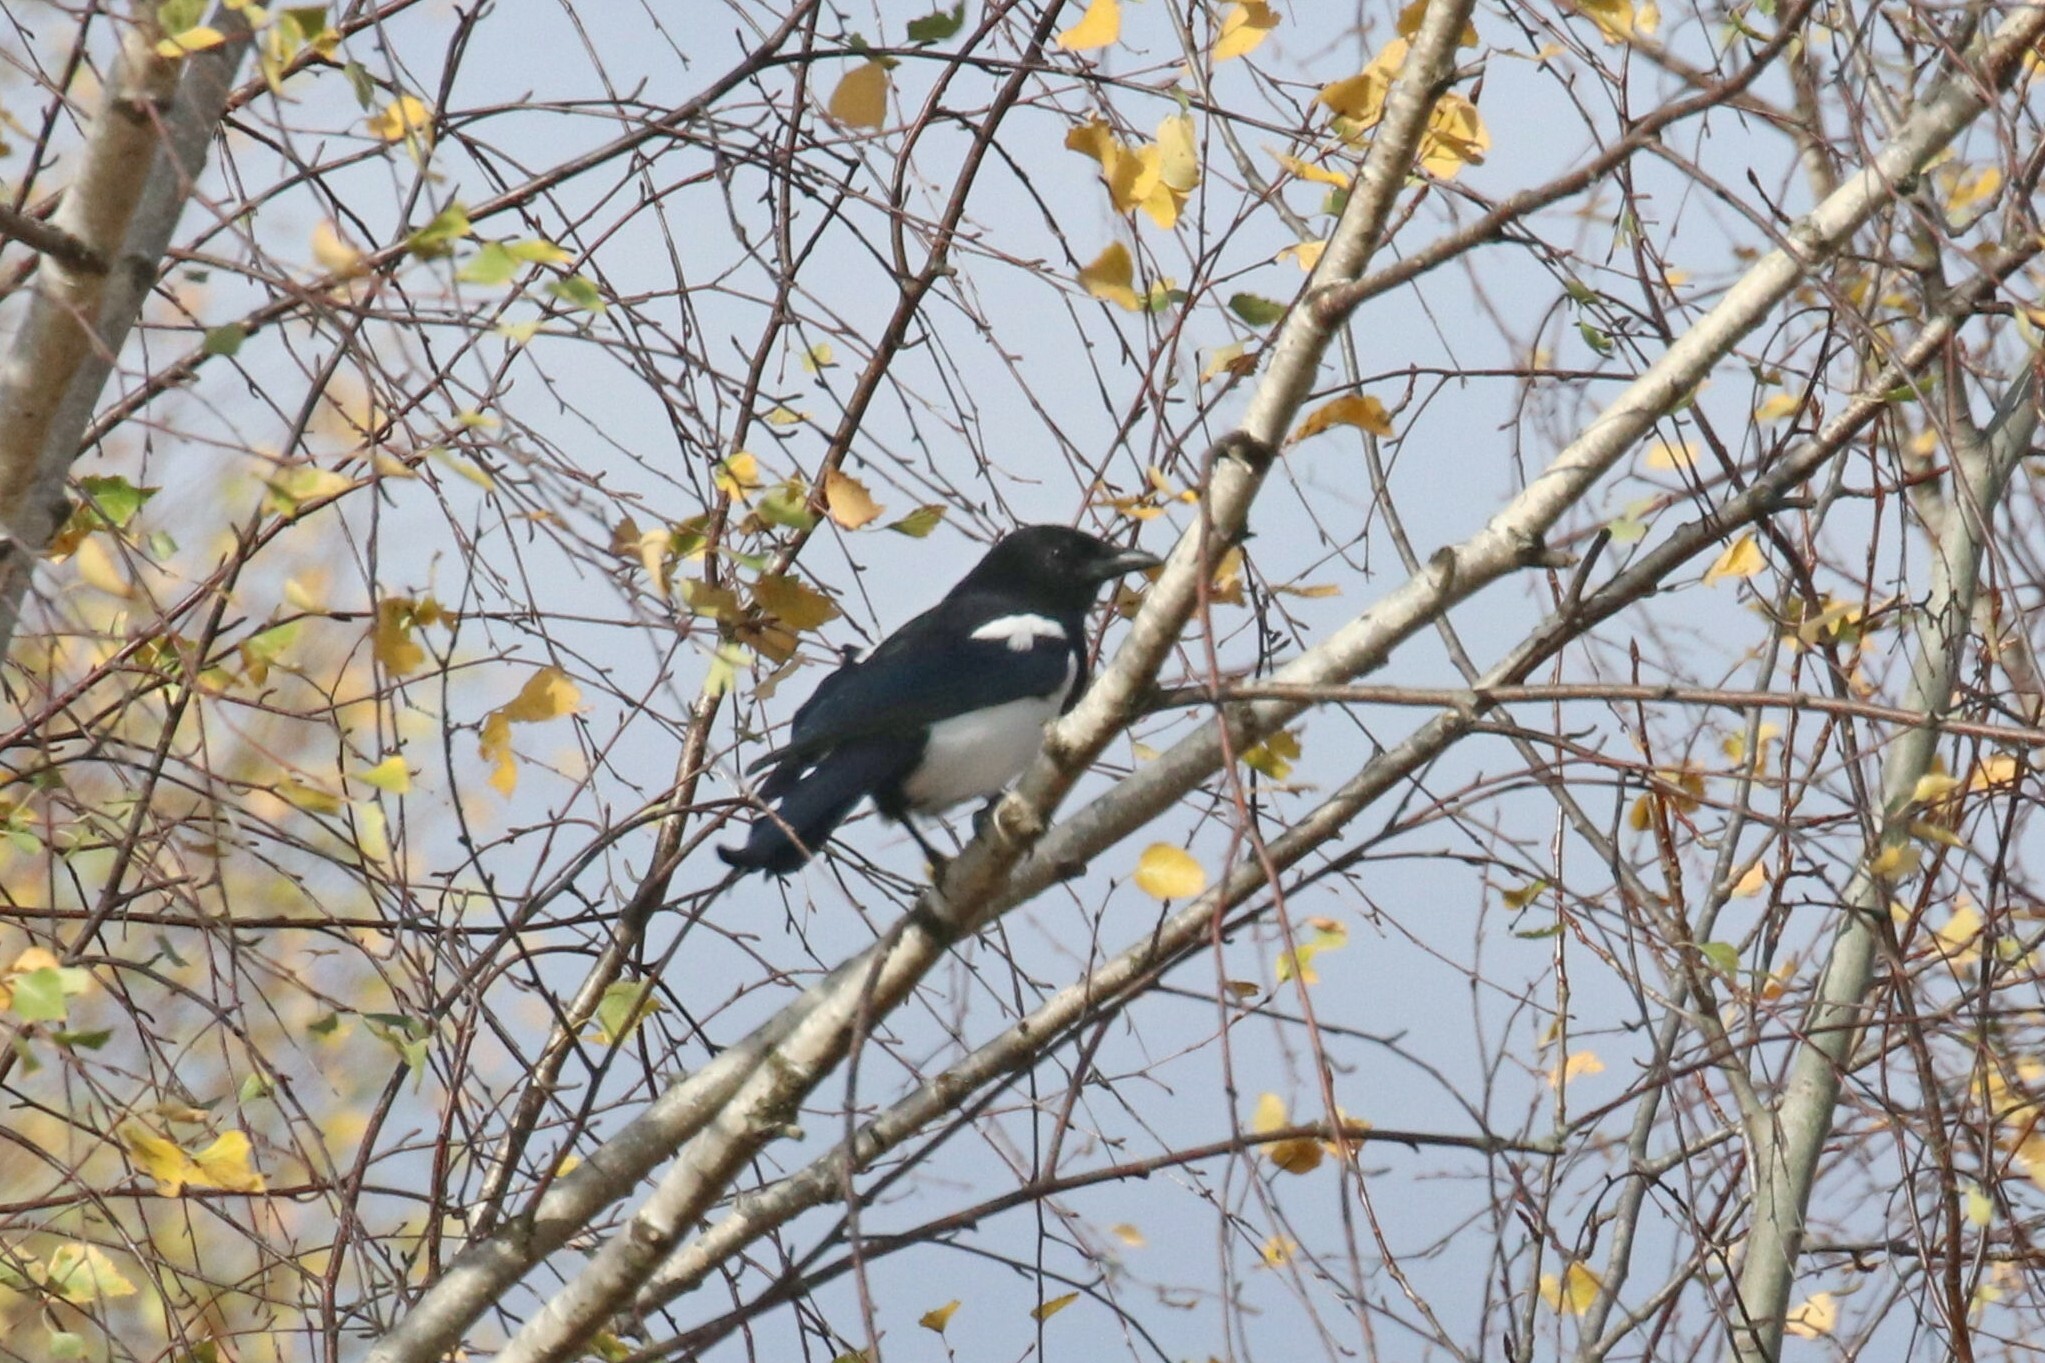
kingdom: Animalia
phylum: Chordata
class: Aves
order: Passeriformes
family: Corvidae
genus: Pica
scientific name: Pica pica
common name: Eurasian magpie
